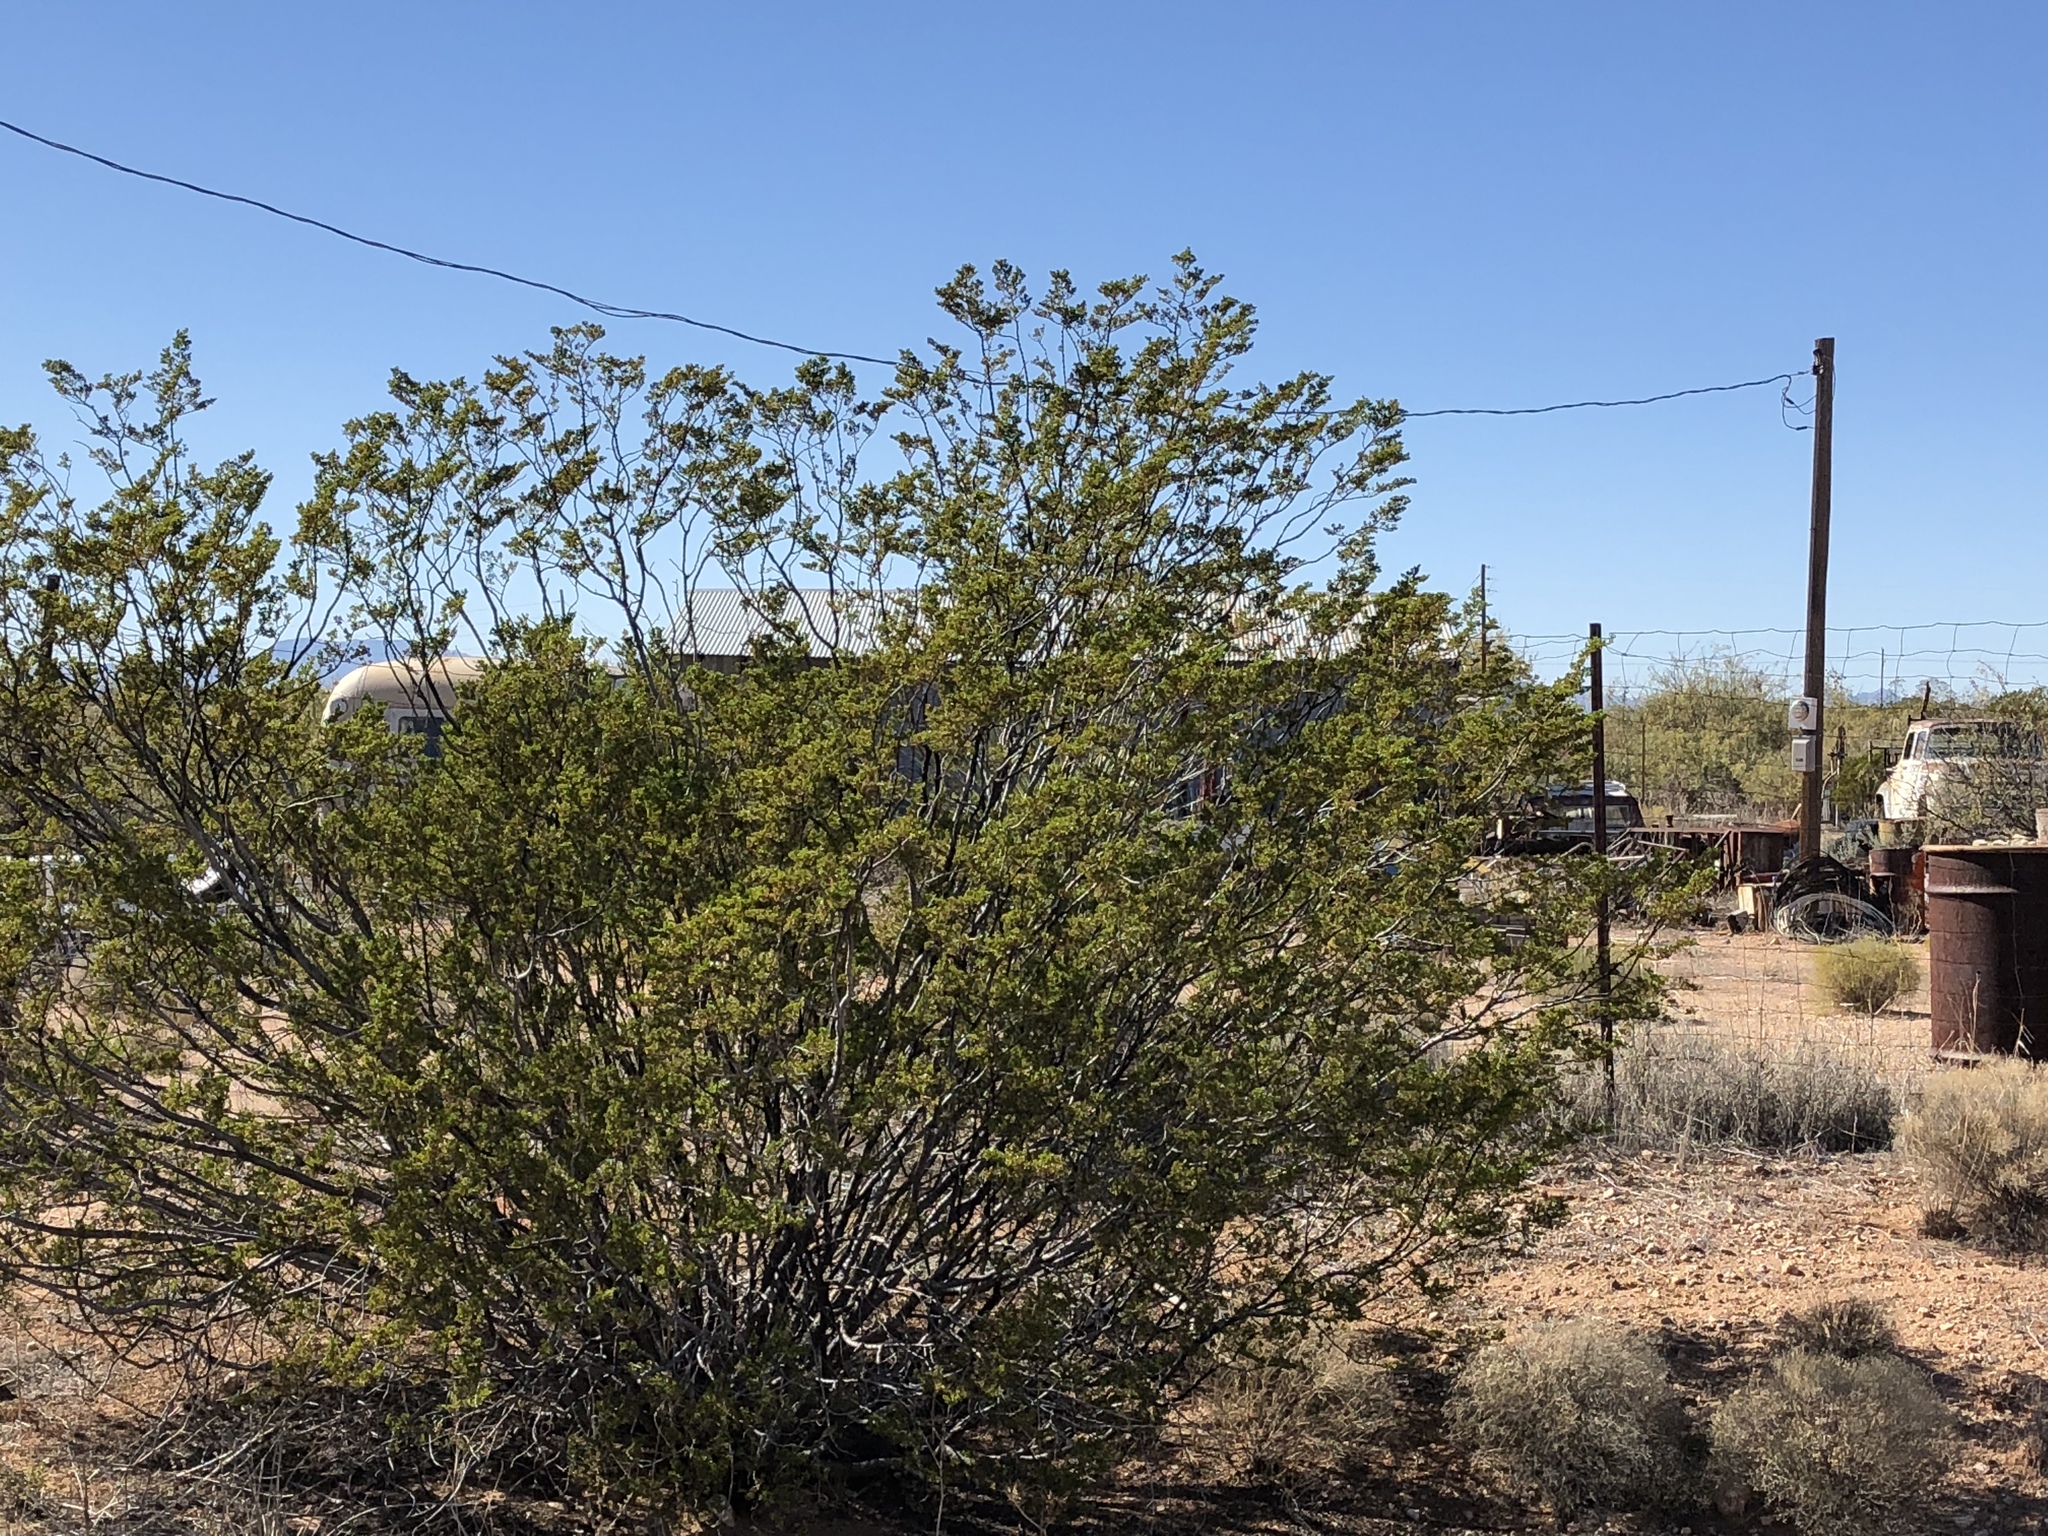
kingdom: Plantae
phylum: Tracheophyta
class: Magnoliopsida
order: Zygophyllales
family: Zygophyllaceae
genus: Larrea
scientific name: Larrea tridentata
